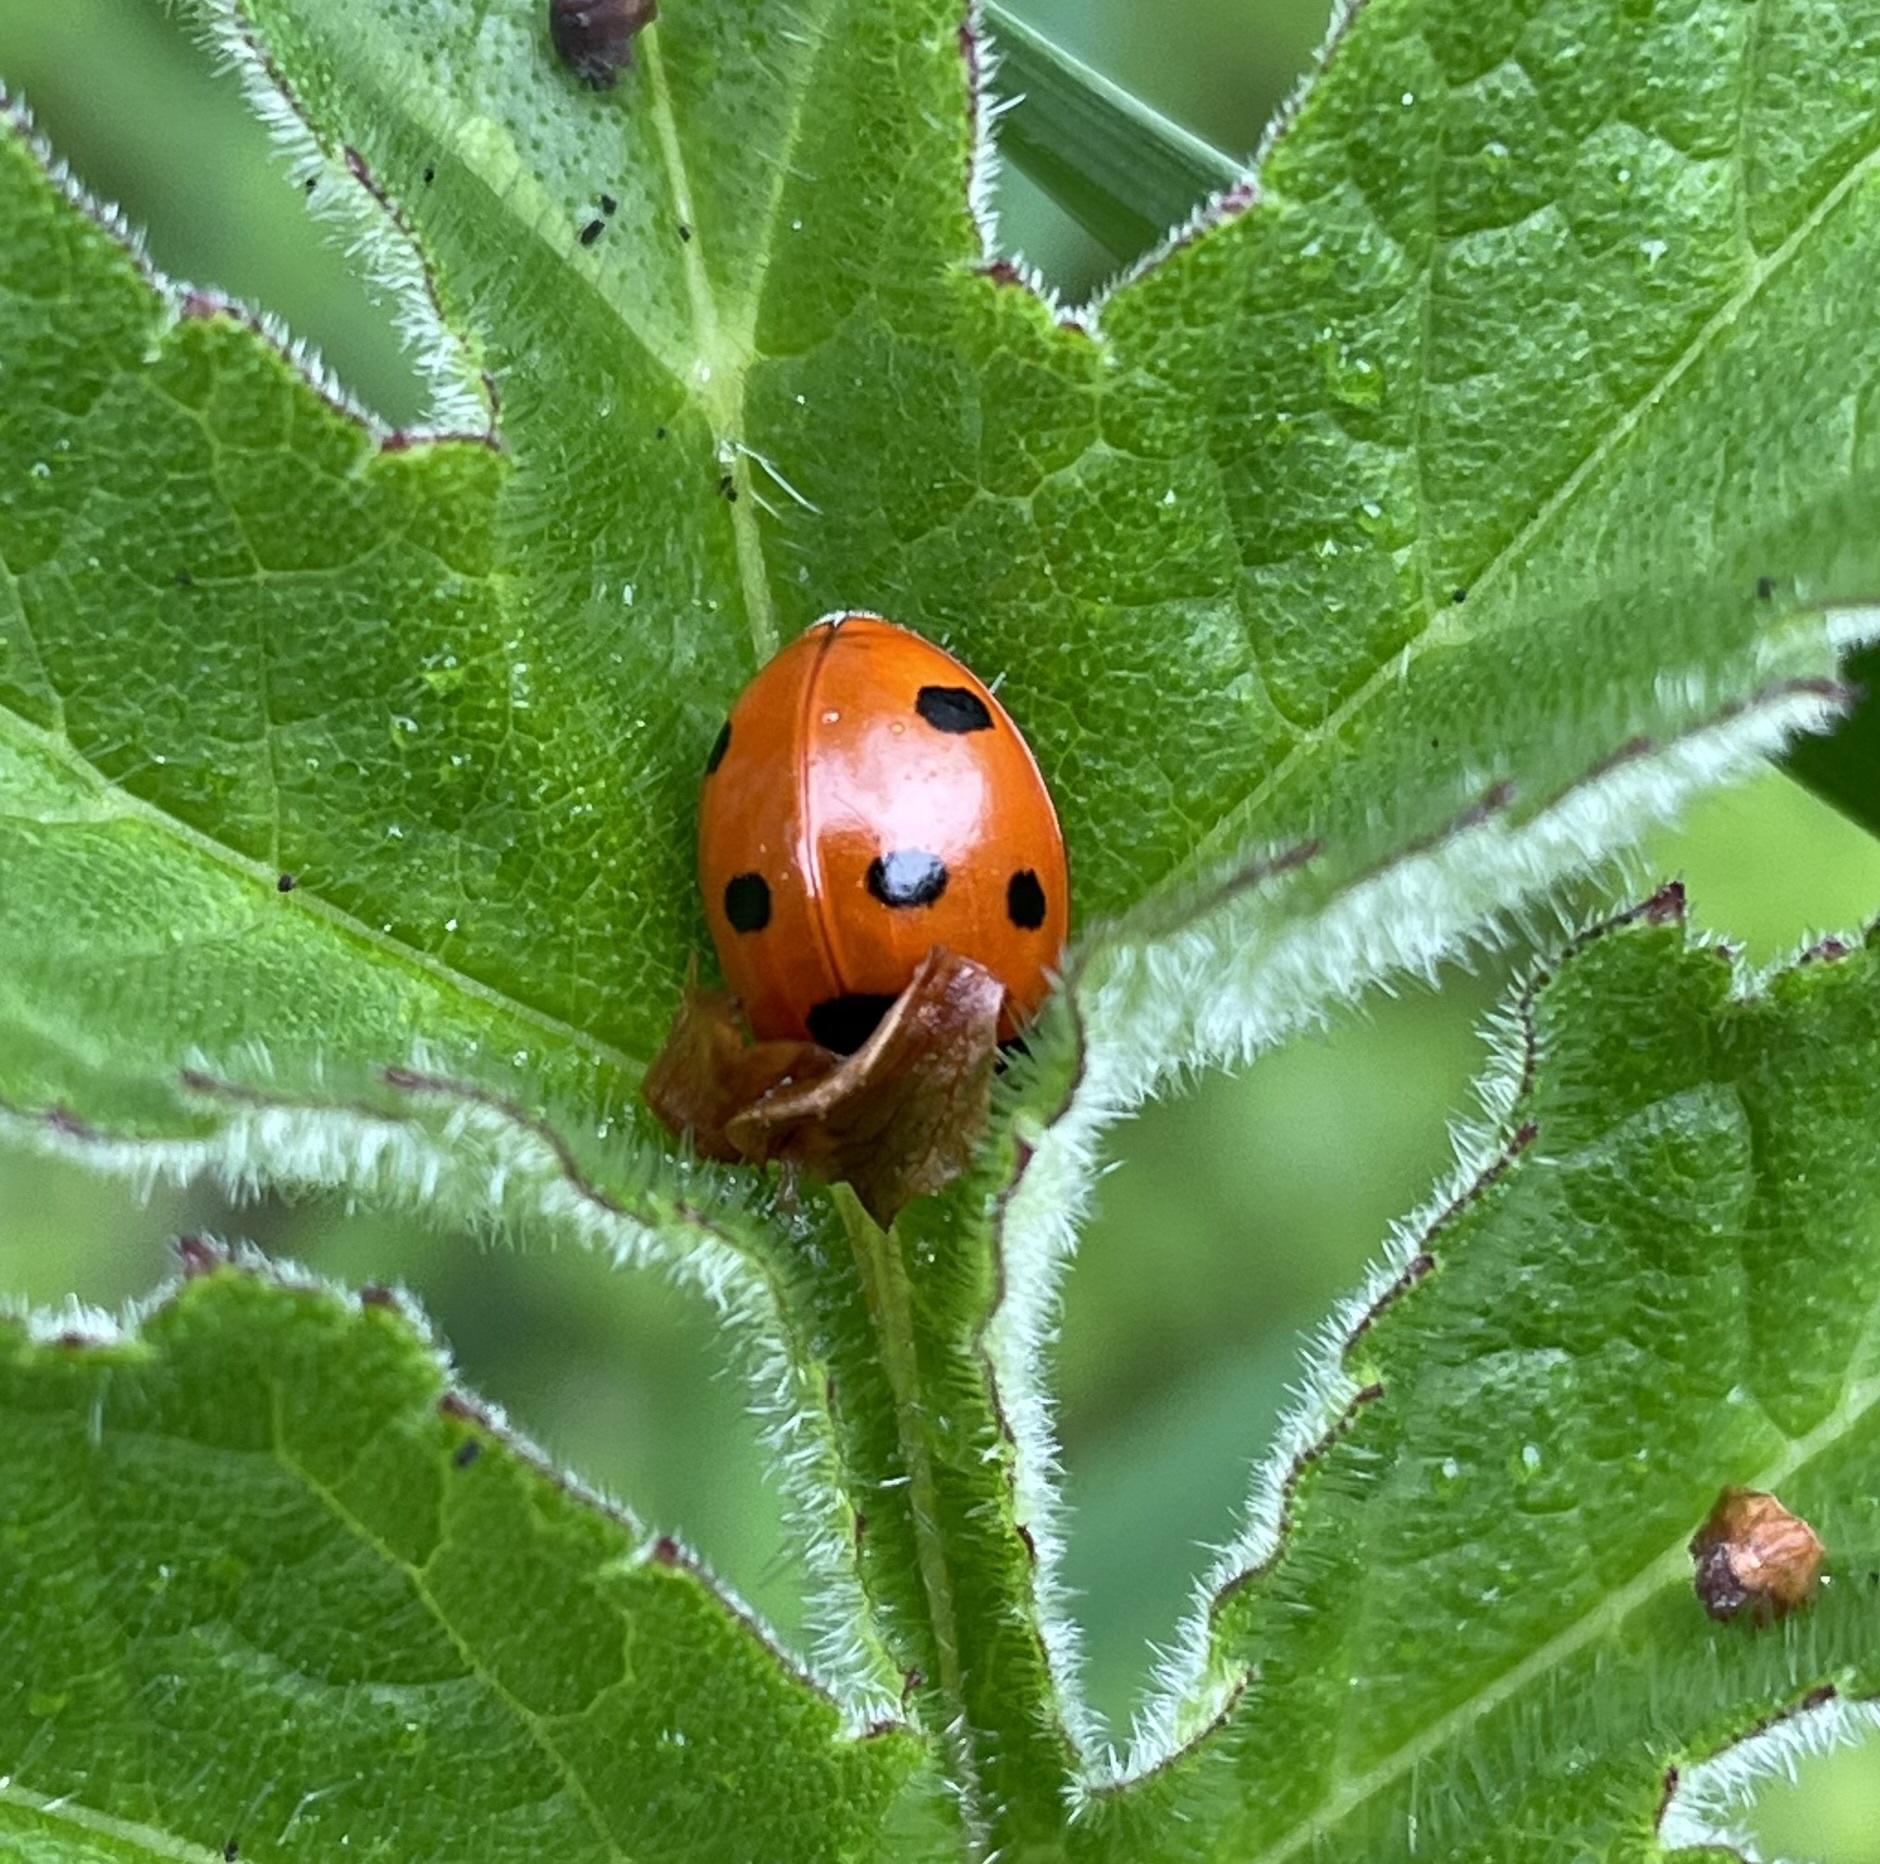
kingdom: Animalia
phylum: Arthropoda
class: Insecta
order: Coleoptera
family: Coccinellidae
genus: Coccinella
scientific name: Coccinella septempunctata
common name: Sevenspotted lady beetle
